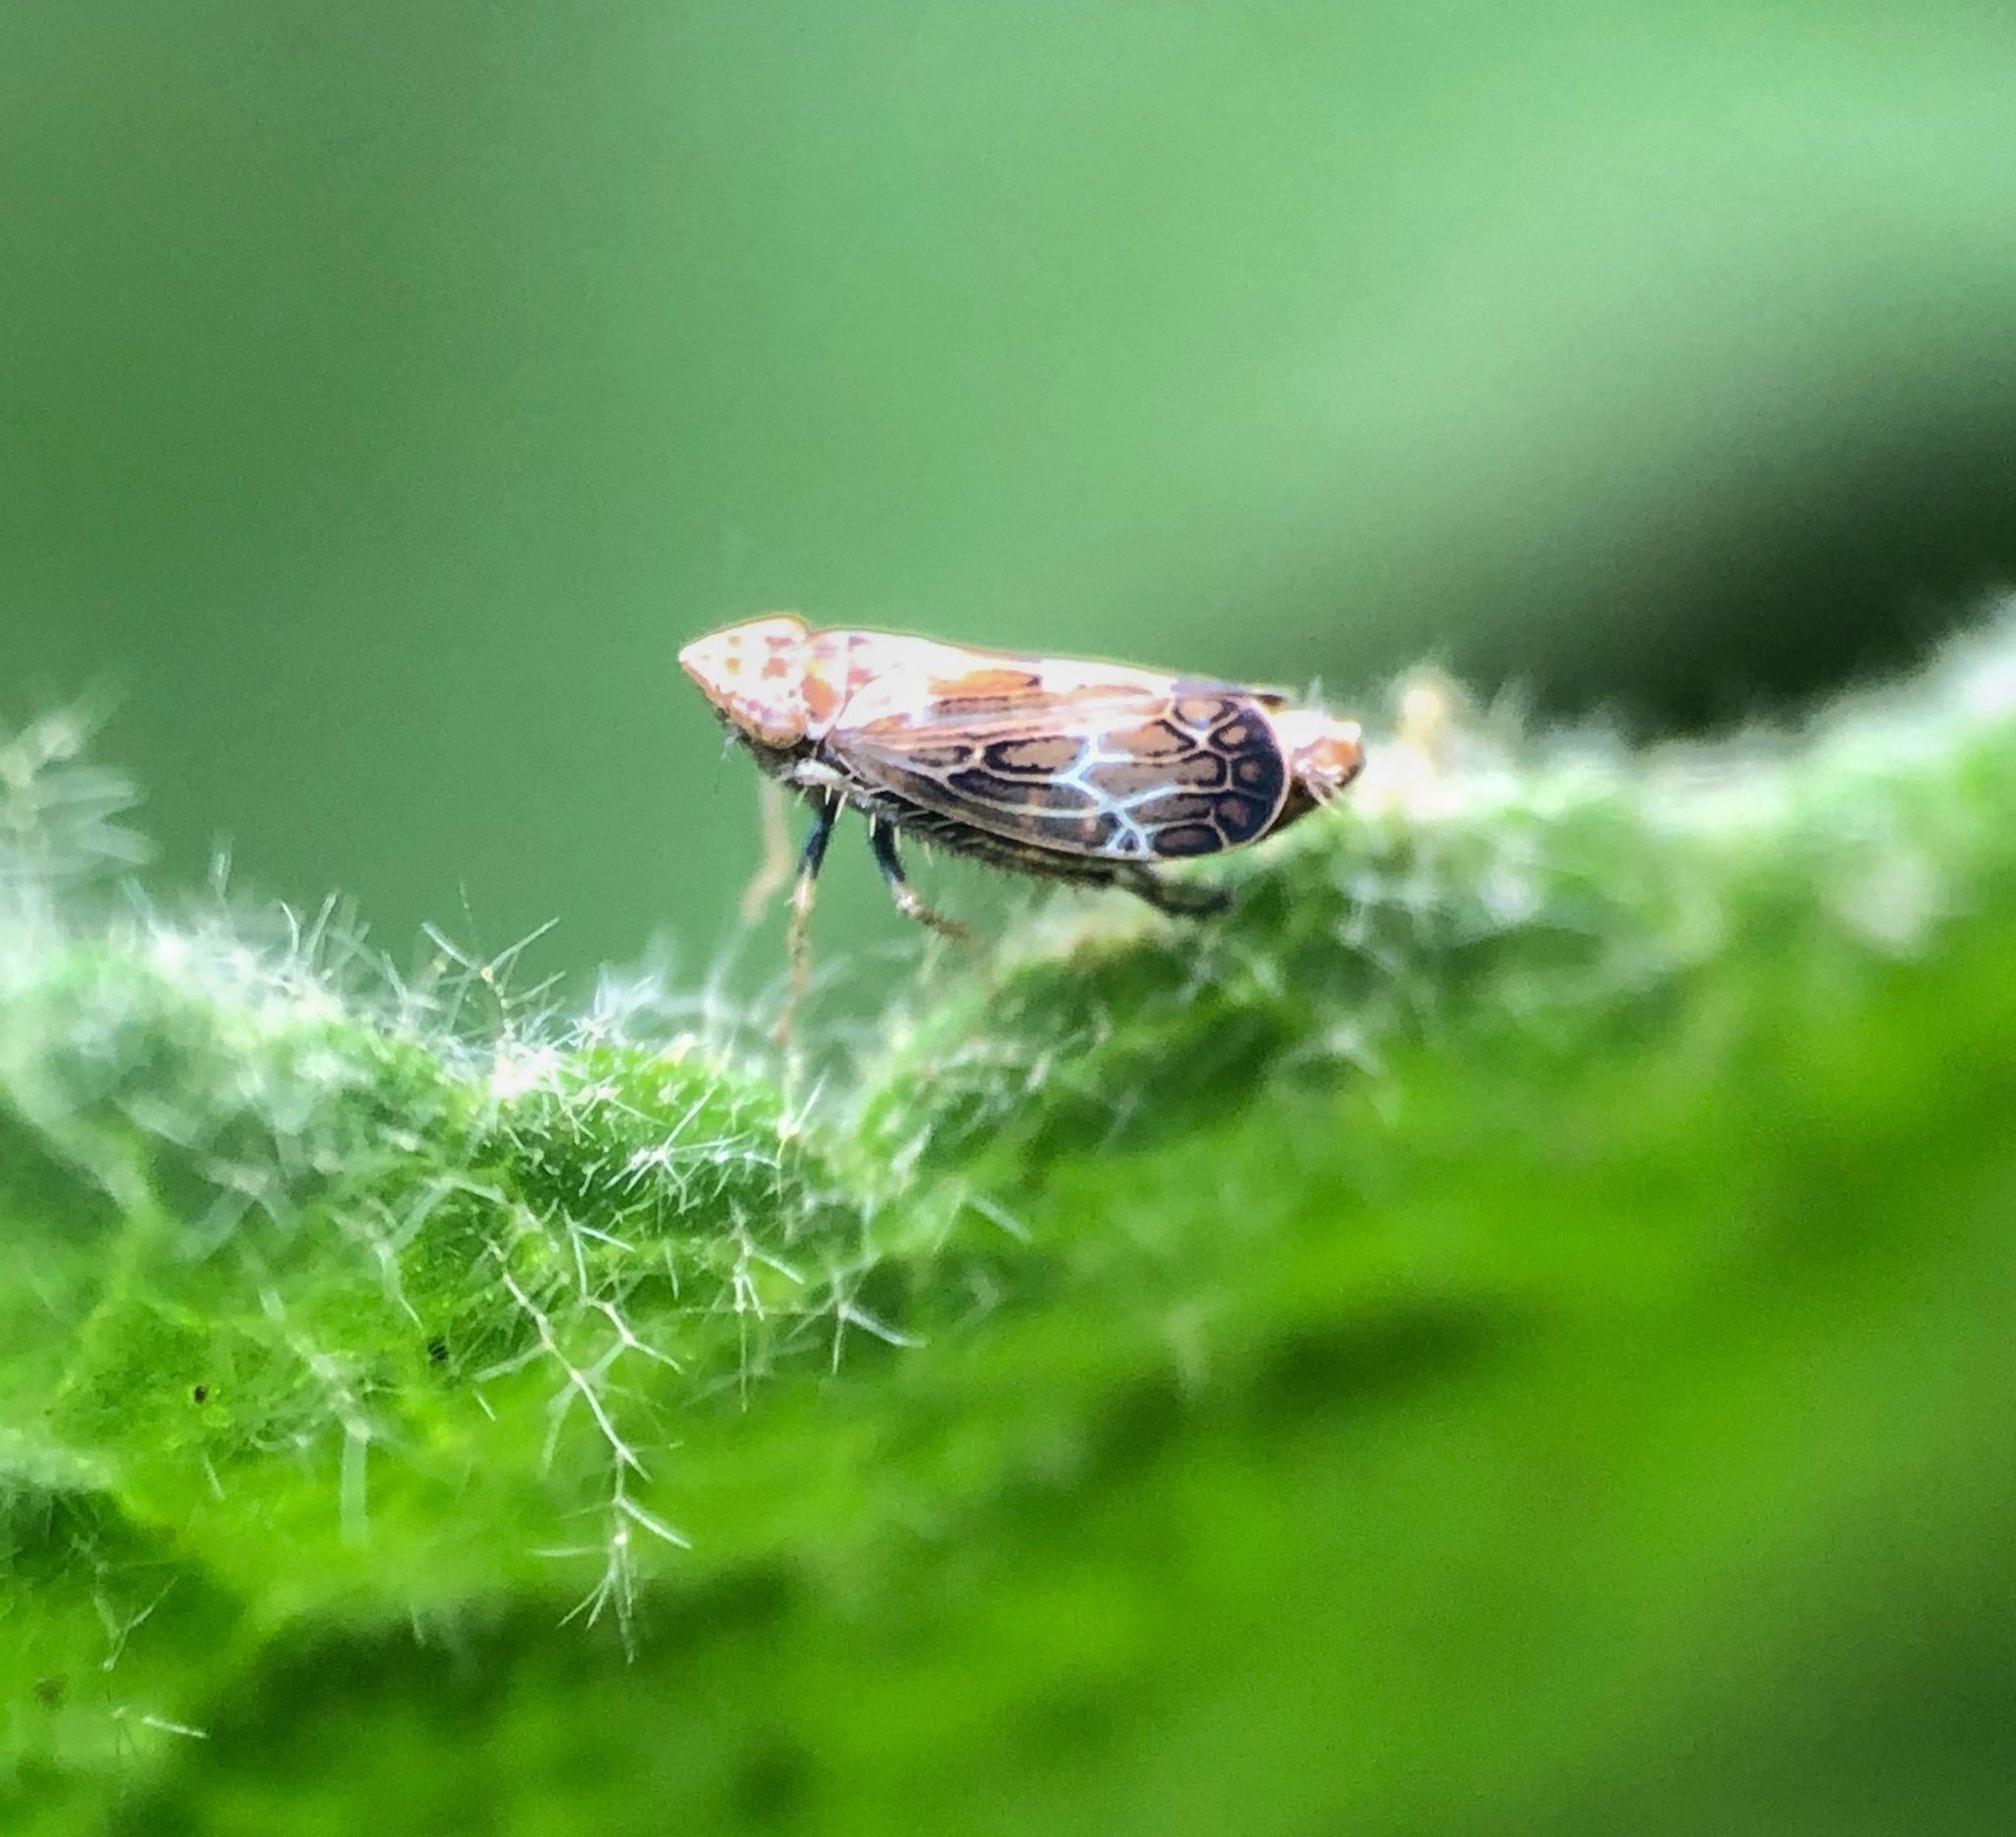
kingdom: Animalia
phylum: Arthropoda
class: Insecta
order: Hemiptera
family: Cicadellidae
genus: Latalus
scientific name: Latalus sayii
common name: Say’s leafhopper
